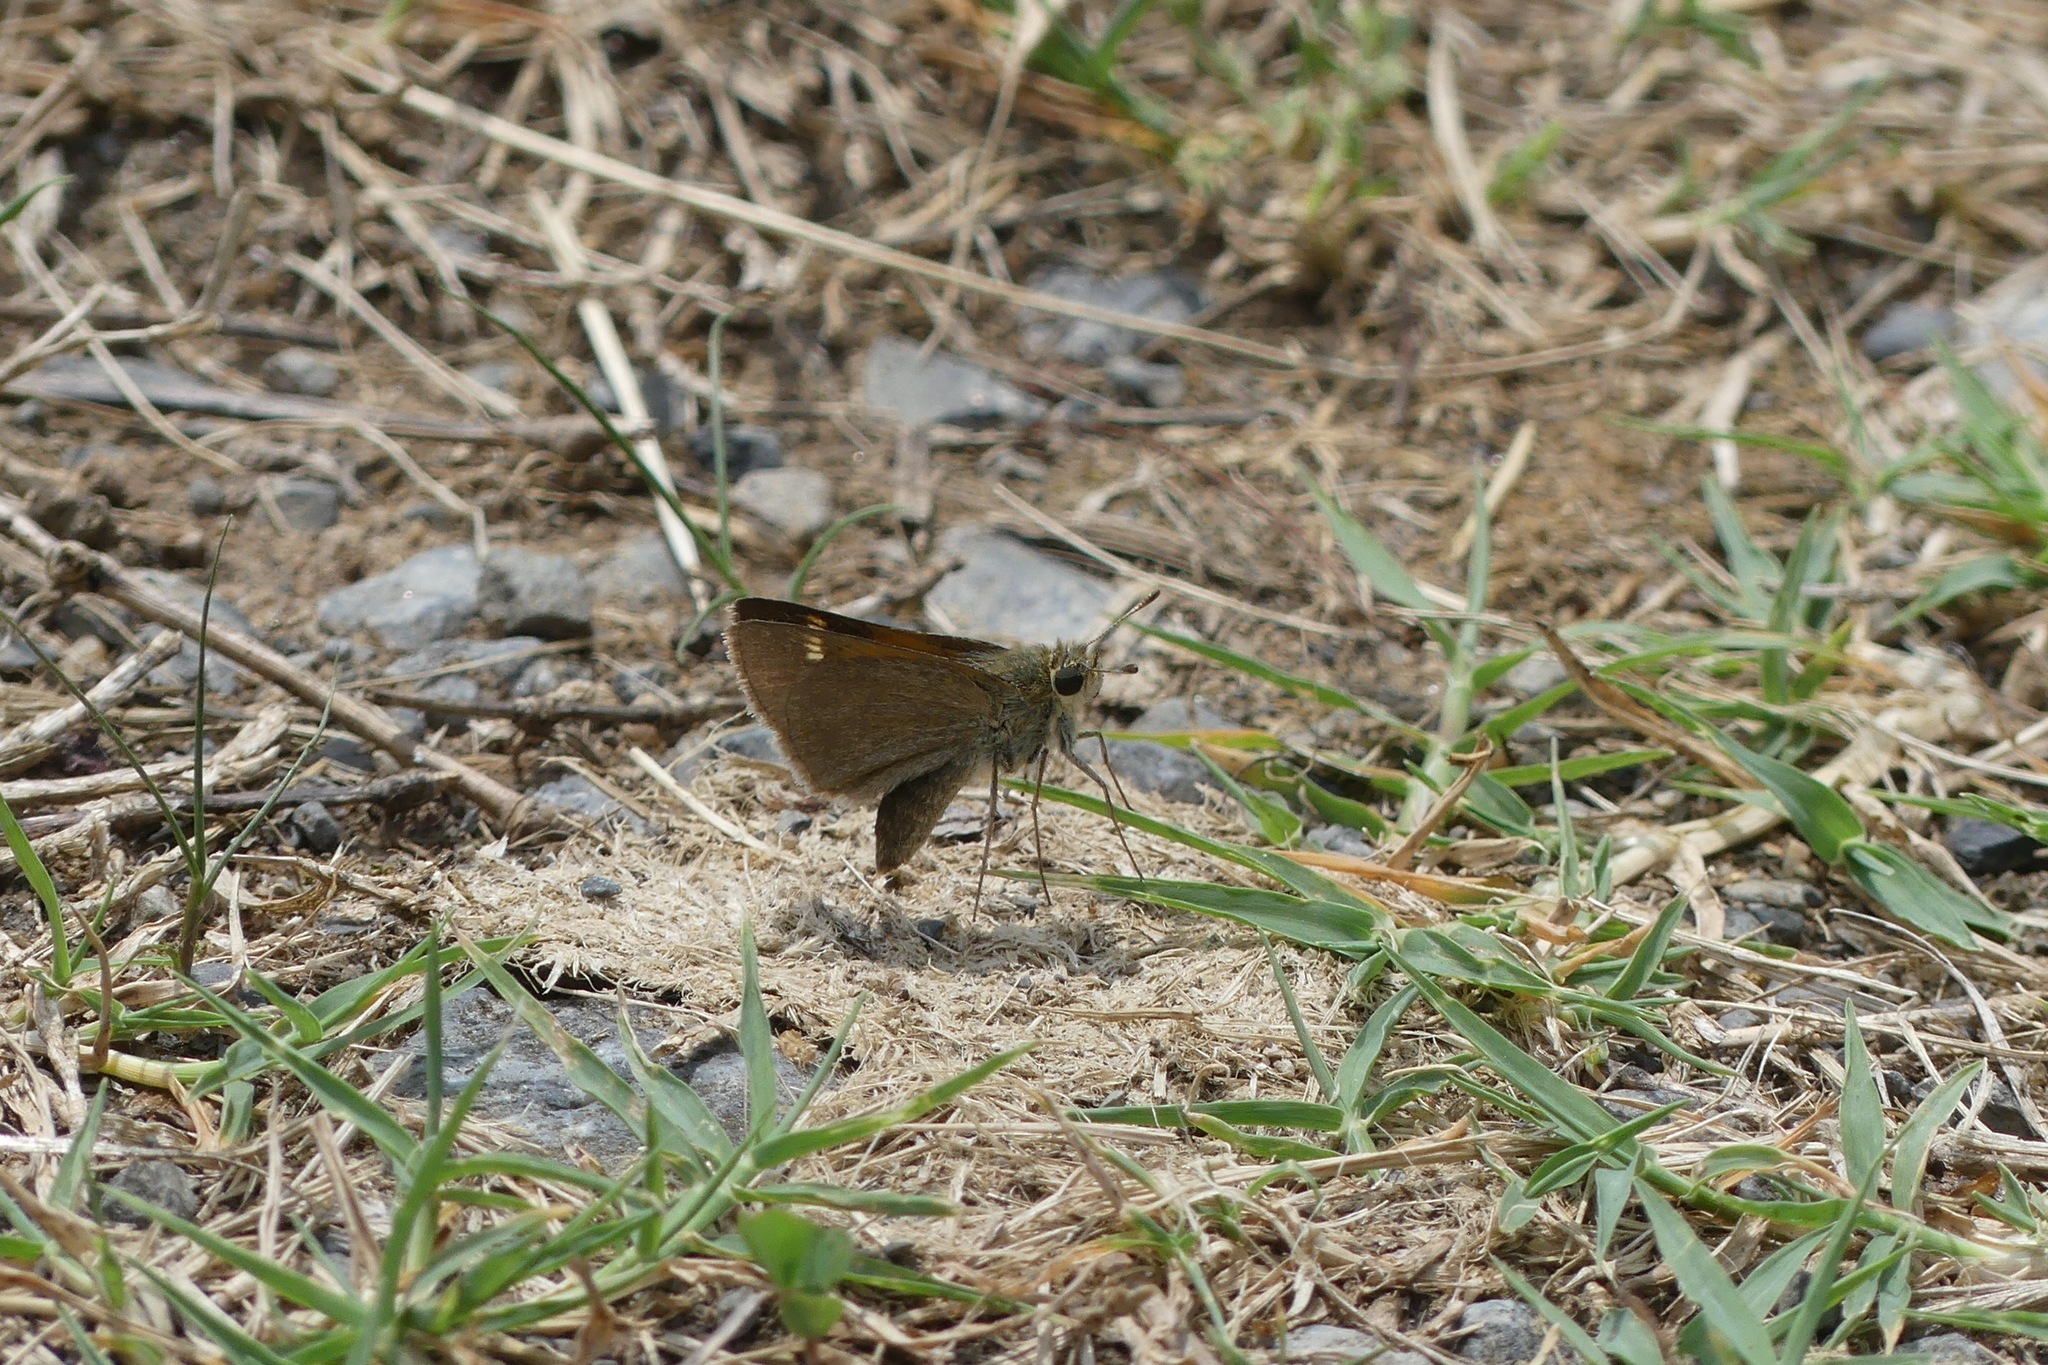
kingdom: Animalia
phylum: Arthropoda
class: Insecta
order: Lepidoptera
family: Hesperiidae
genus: Polites
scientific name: Polites themistocles
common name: Tawny-edged skipper
